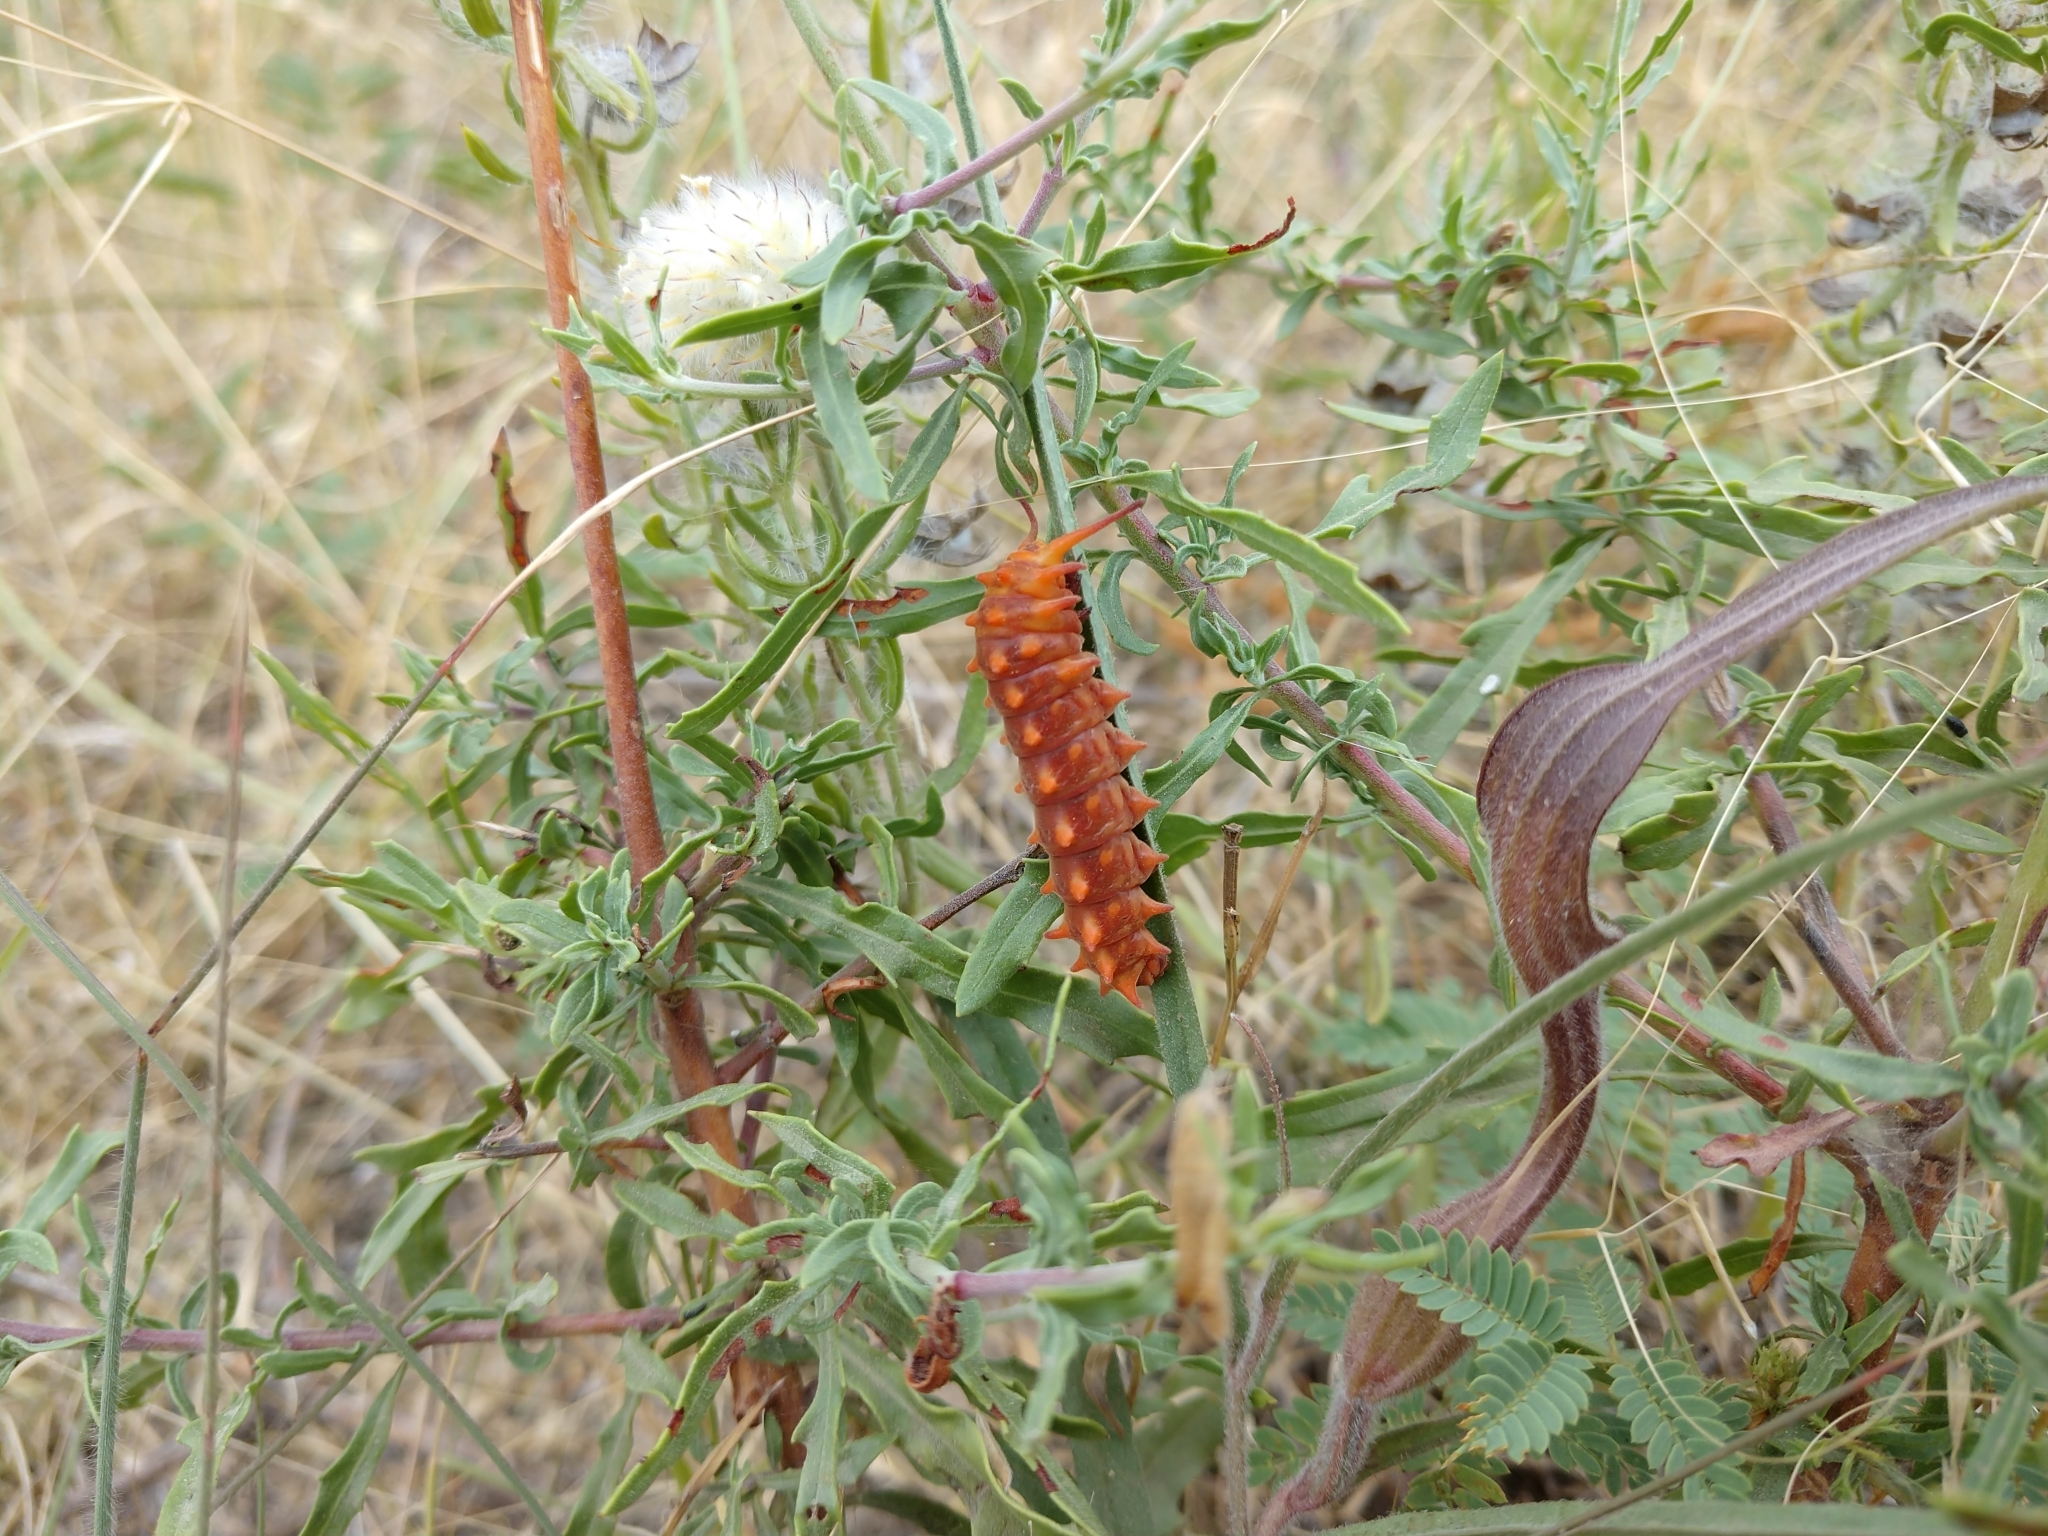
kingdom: Animalia
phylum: Arthropoda
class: Insecta
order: Lepidoptera
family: Papilionidae
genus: Battus
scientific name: Battus philenor
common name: Pipevine swallowtail
